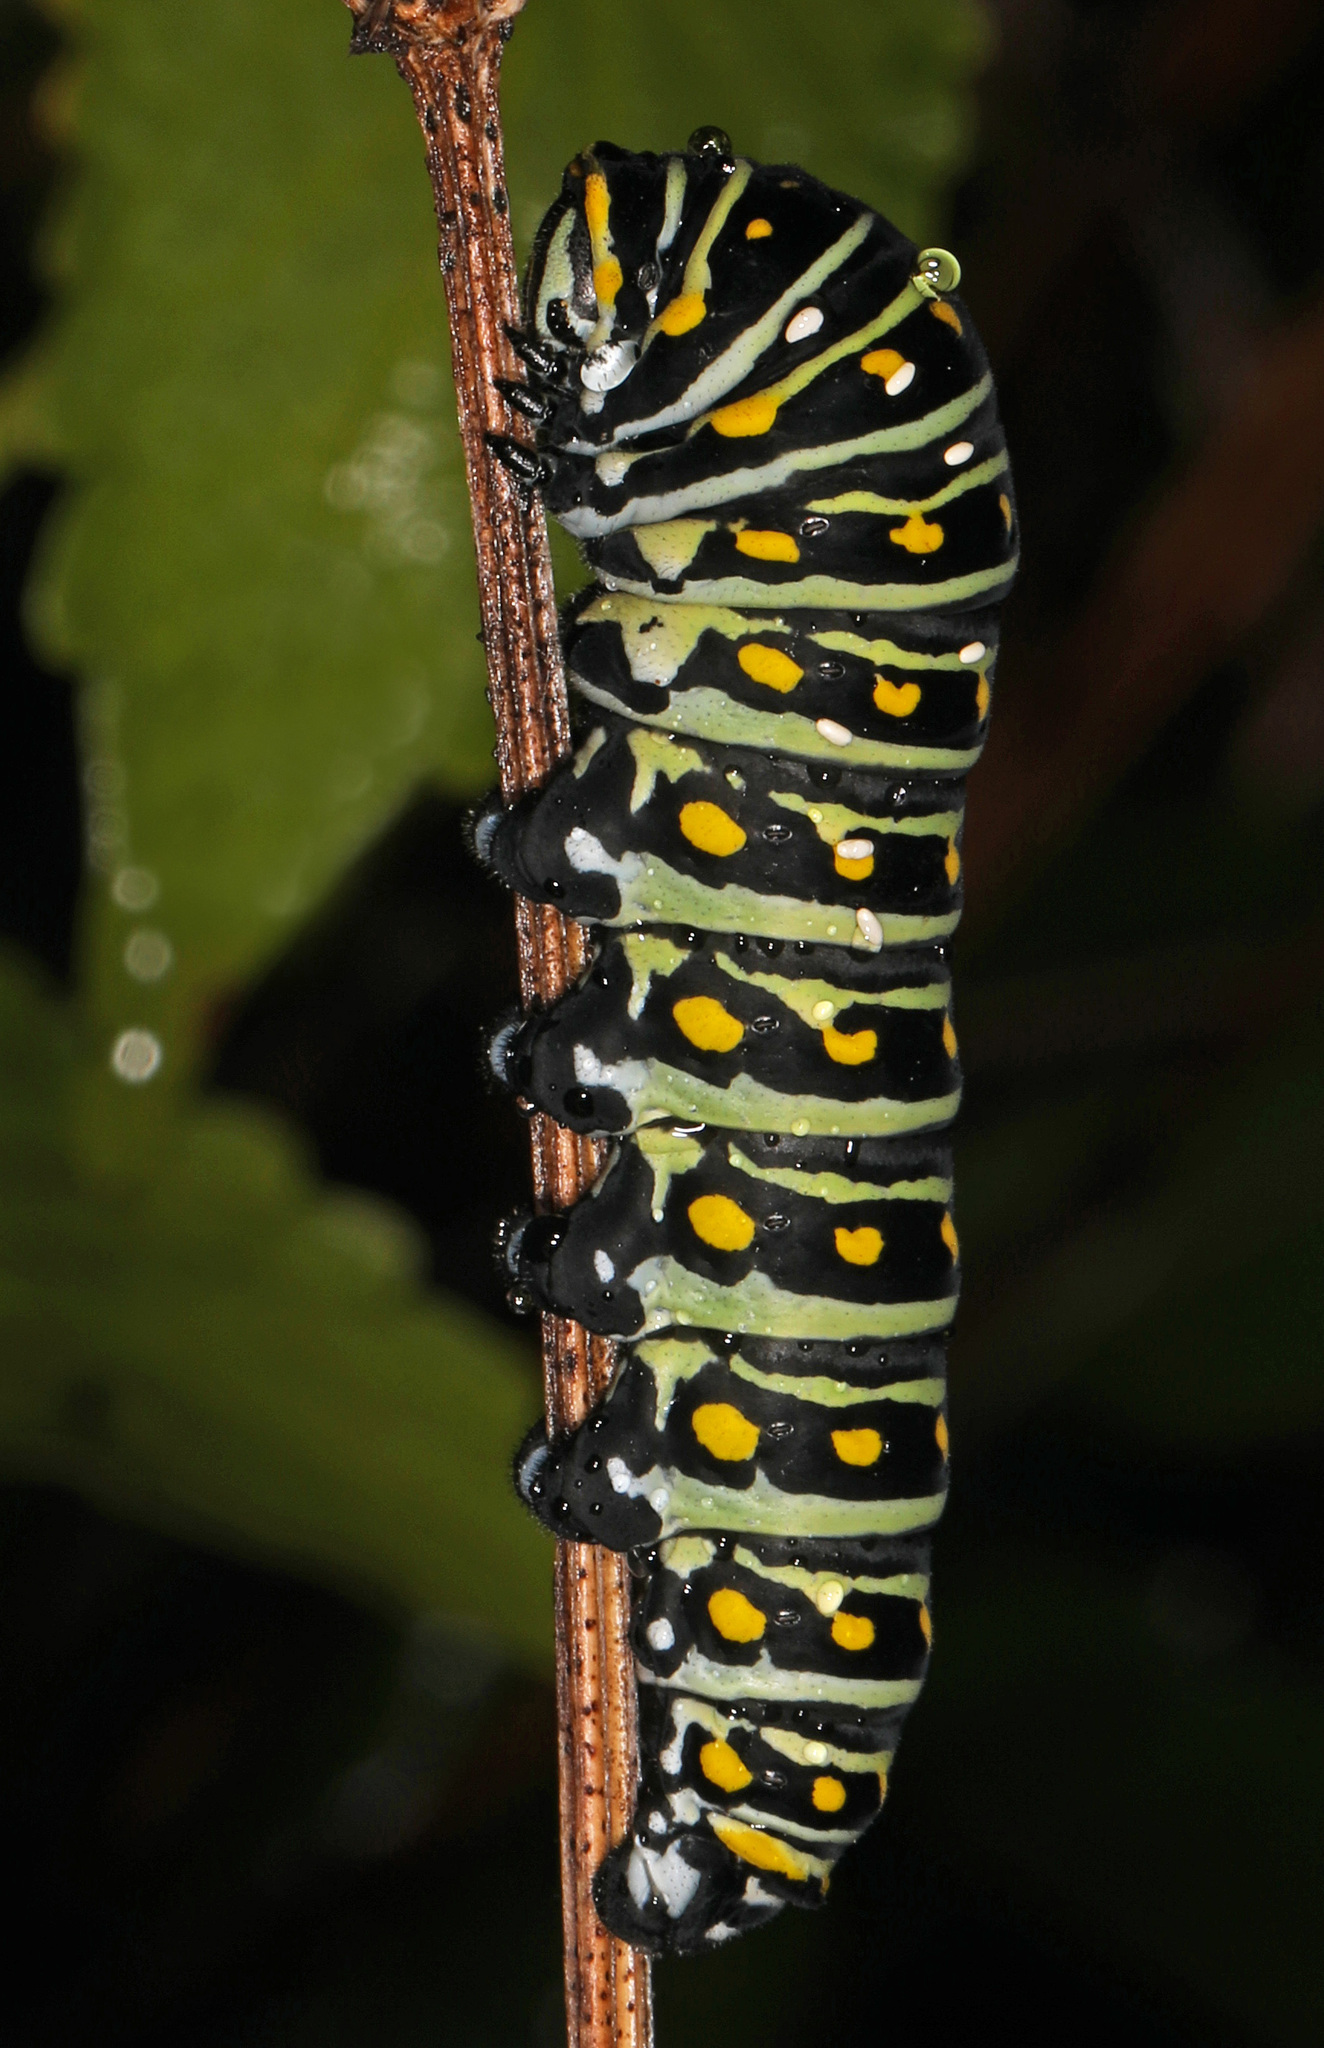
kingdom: Animalia
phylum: Arthropoda
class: Insecta
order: Lepidoptera
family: Papilionidae
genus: Papilio
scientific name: Papilio polyxenes
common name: Black swallowtail
